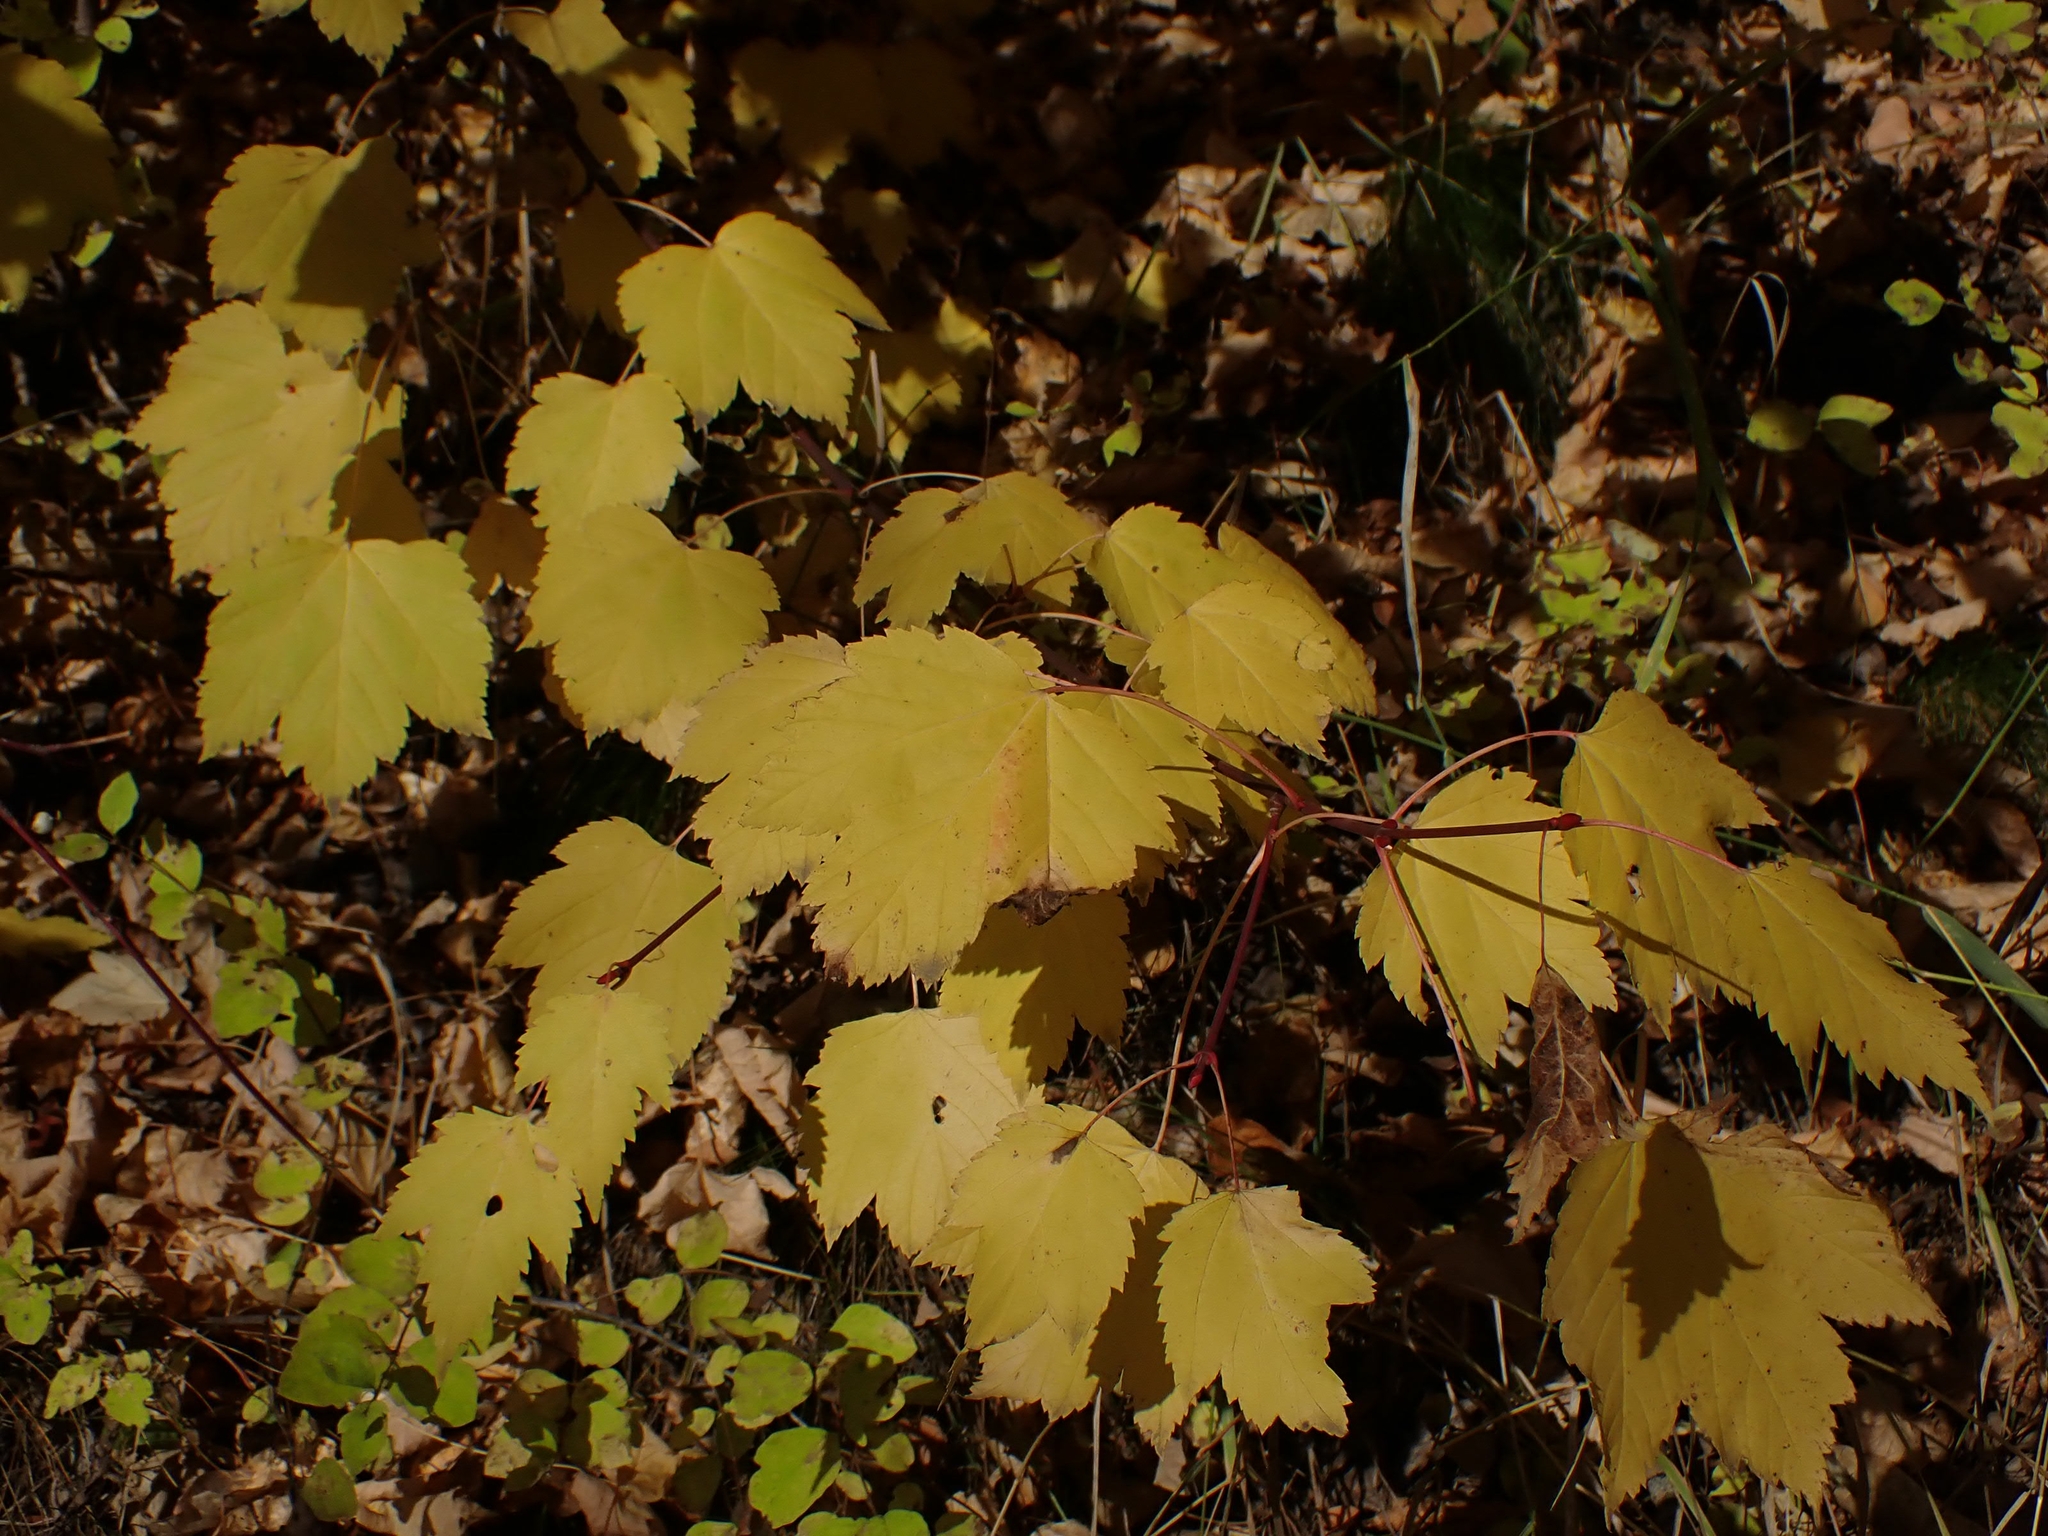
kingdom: Plantae
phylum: Tracheophyta
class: Magnoliopsida
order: Sapindales
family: Sapindaceae
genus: Acer
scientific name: Acer glabrum
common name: Rocky mountain maple
